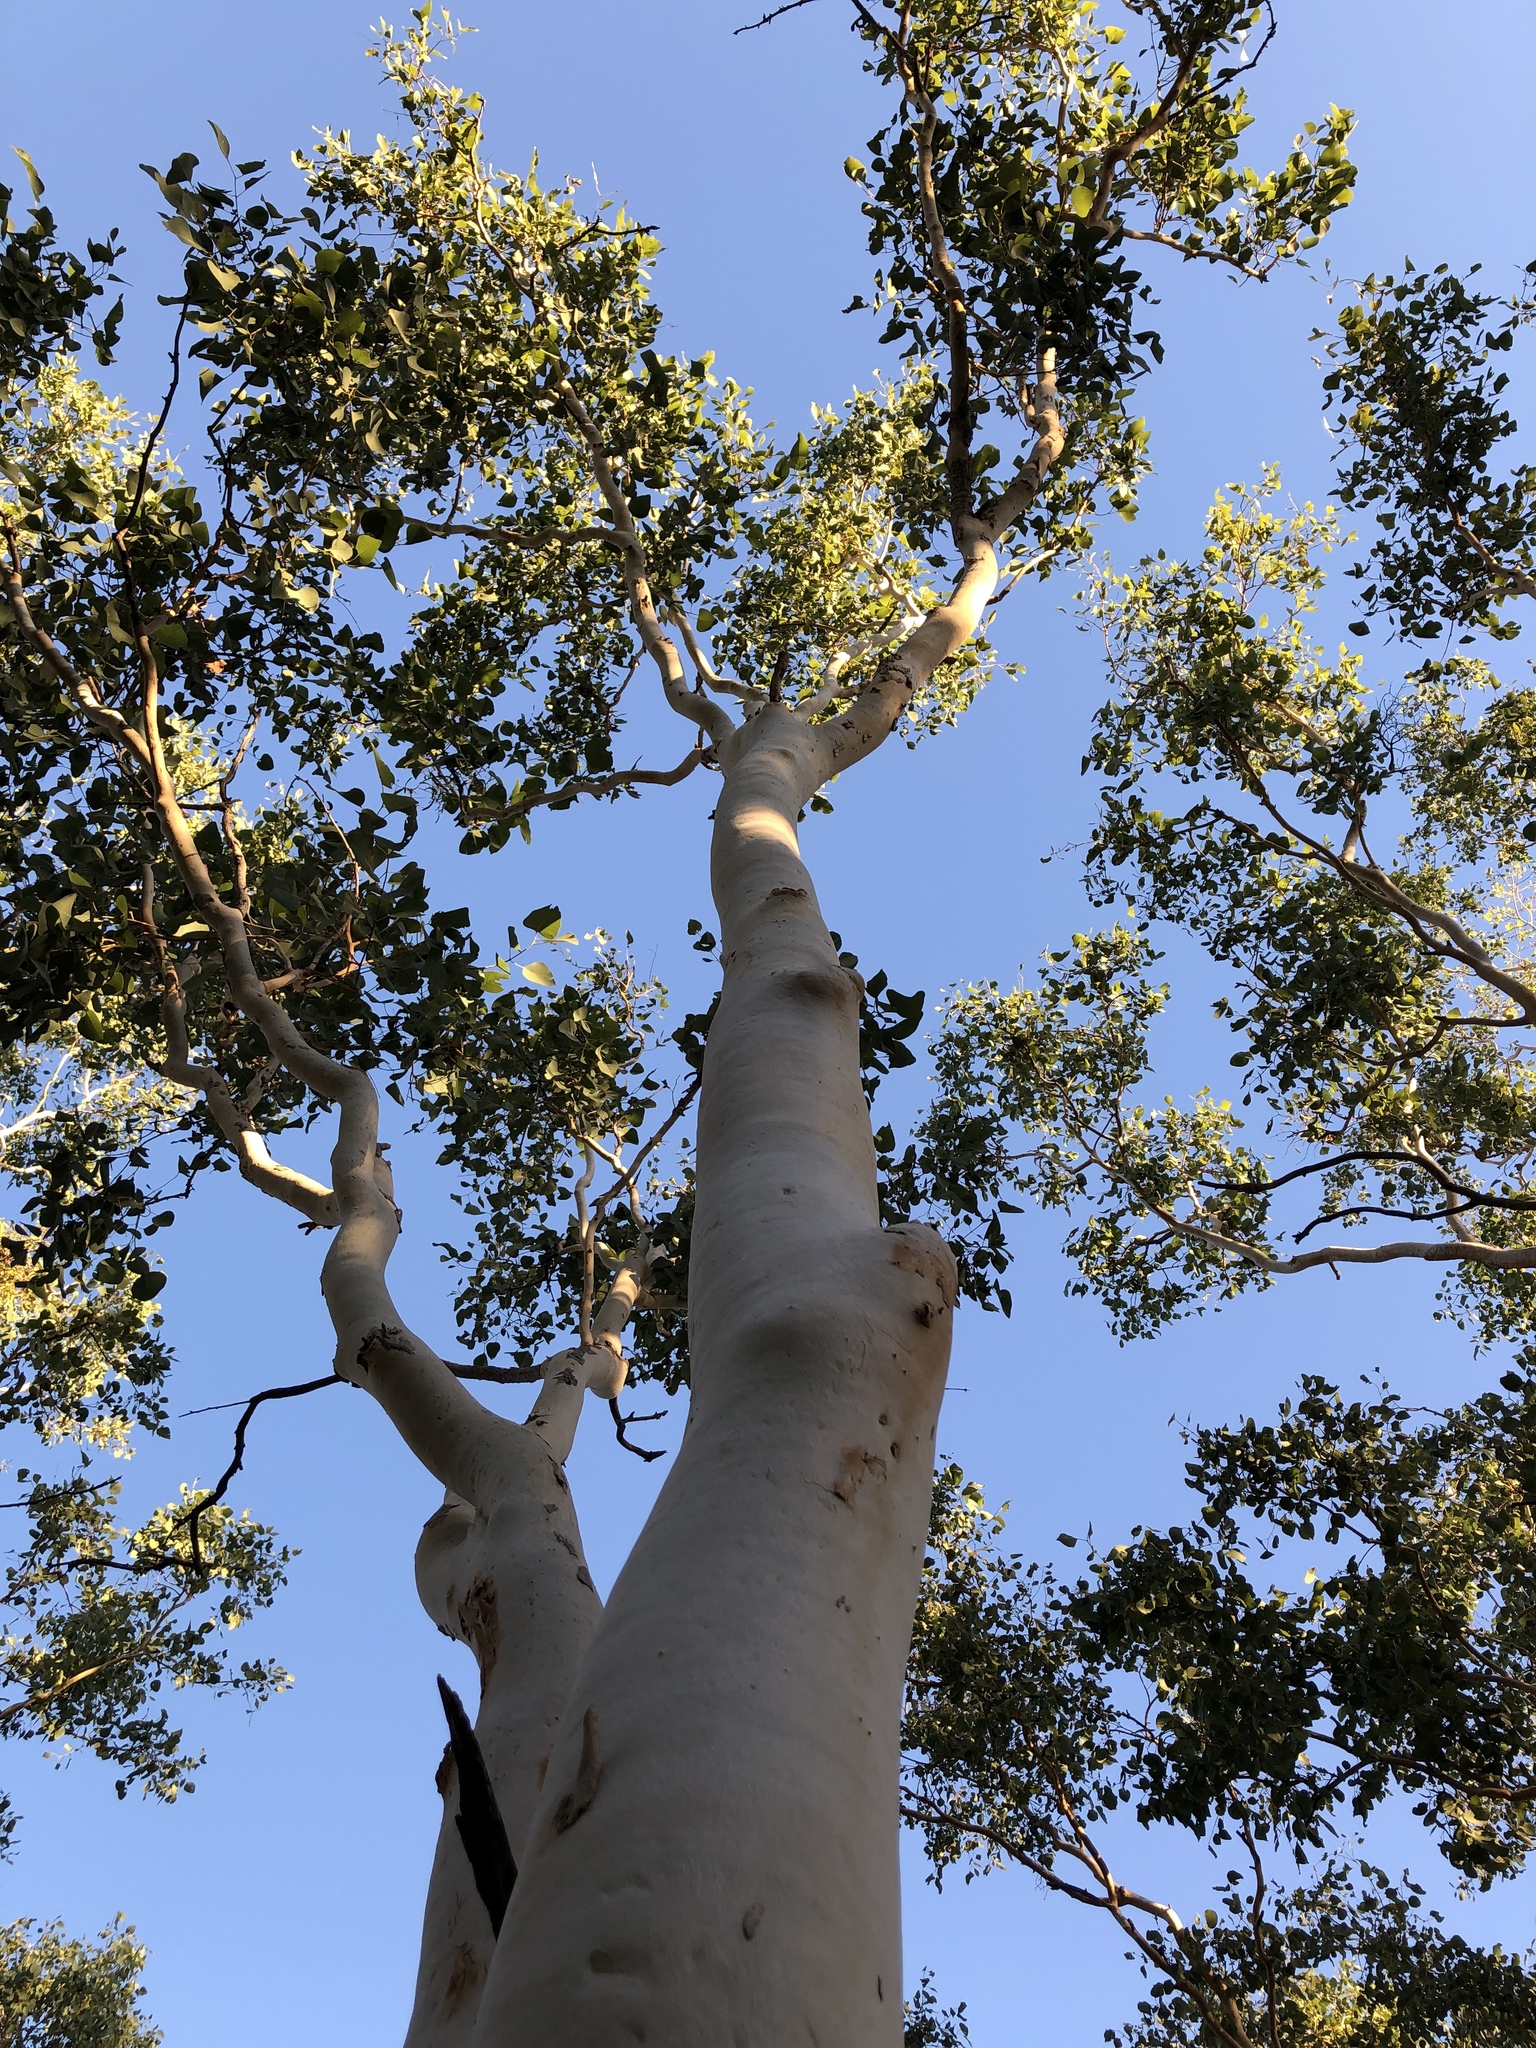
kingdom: Plantae
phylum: Tracheophyta
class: Magnoliopsida
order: Myrtales
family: Myrtaceae
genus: Eucalyptus
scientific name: Eucalyptus platyphylla
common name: Poplar-gum
